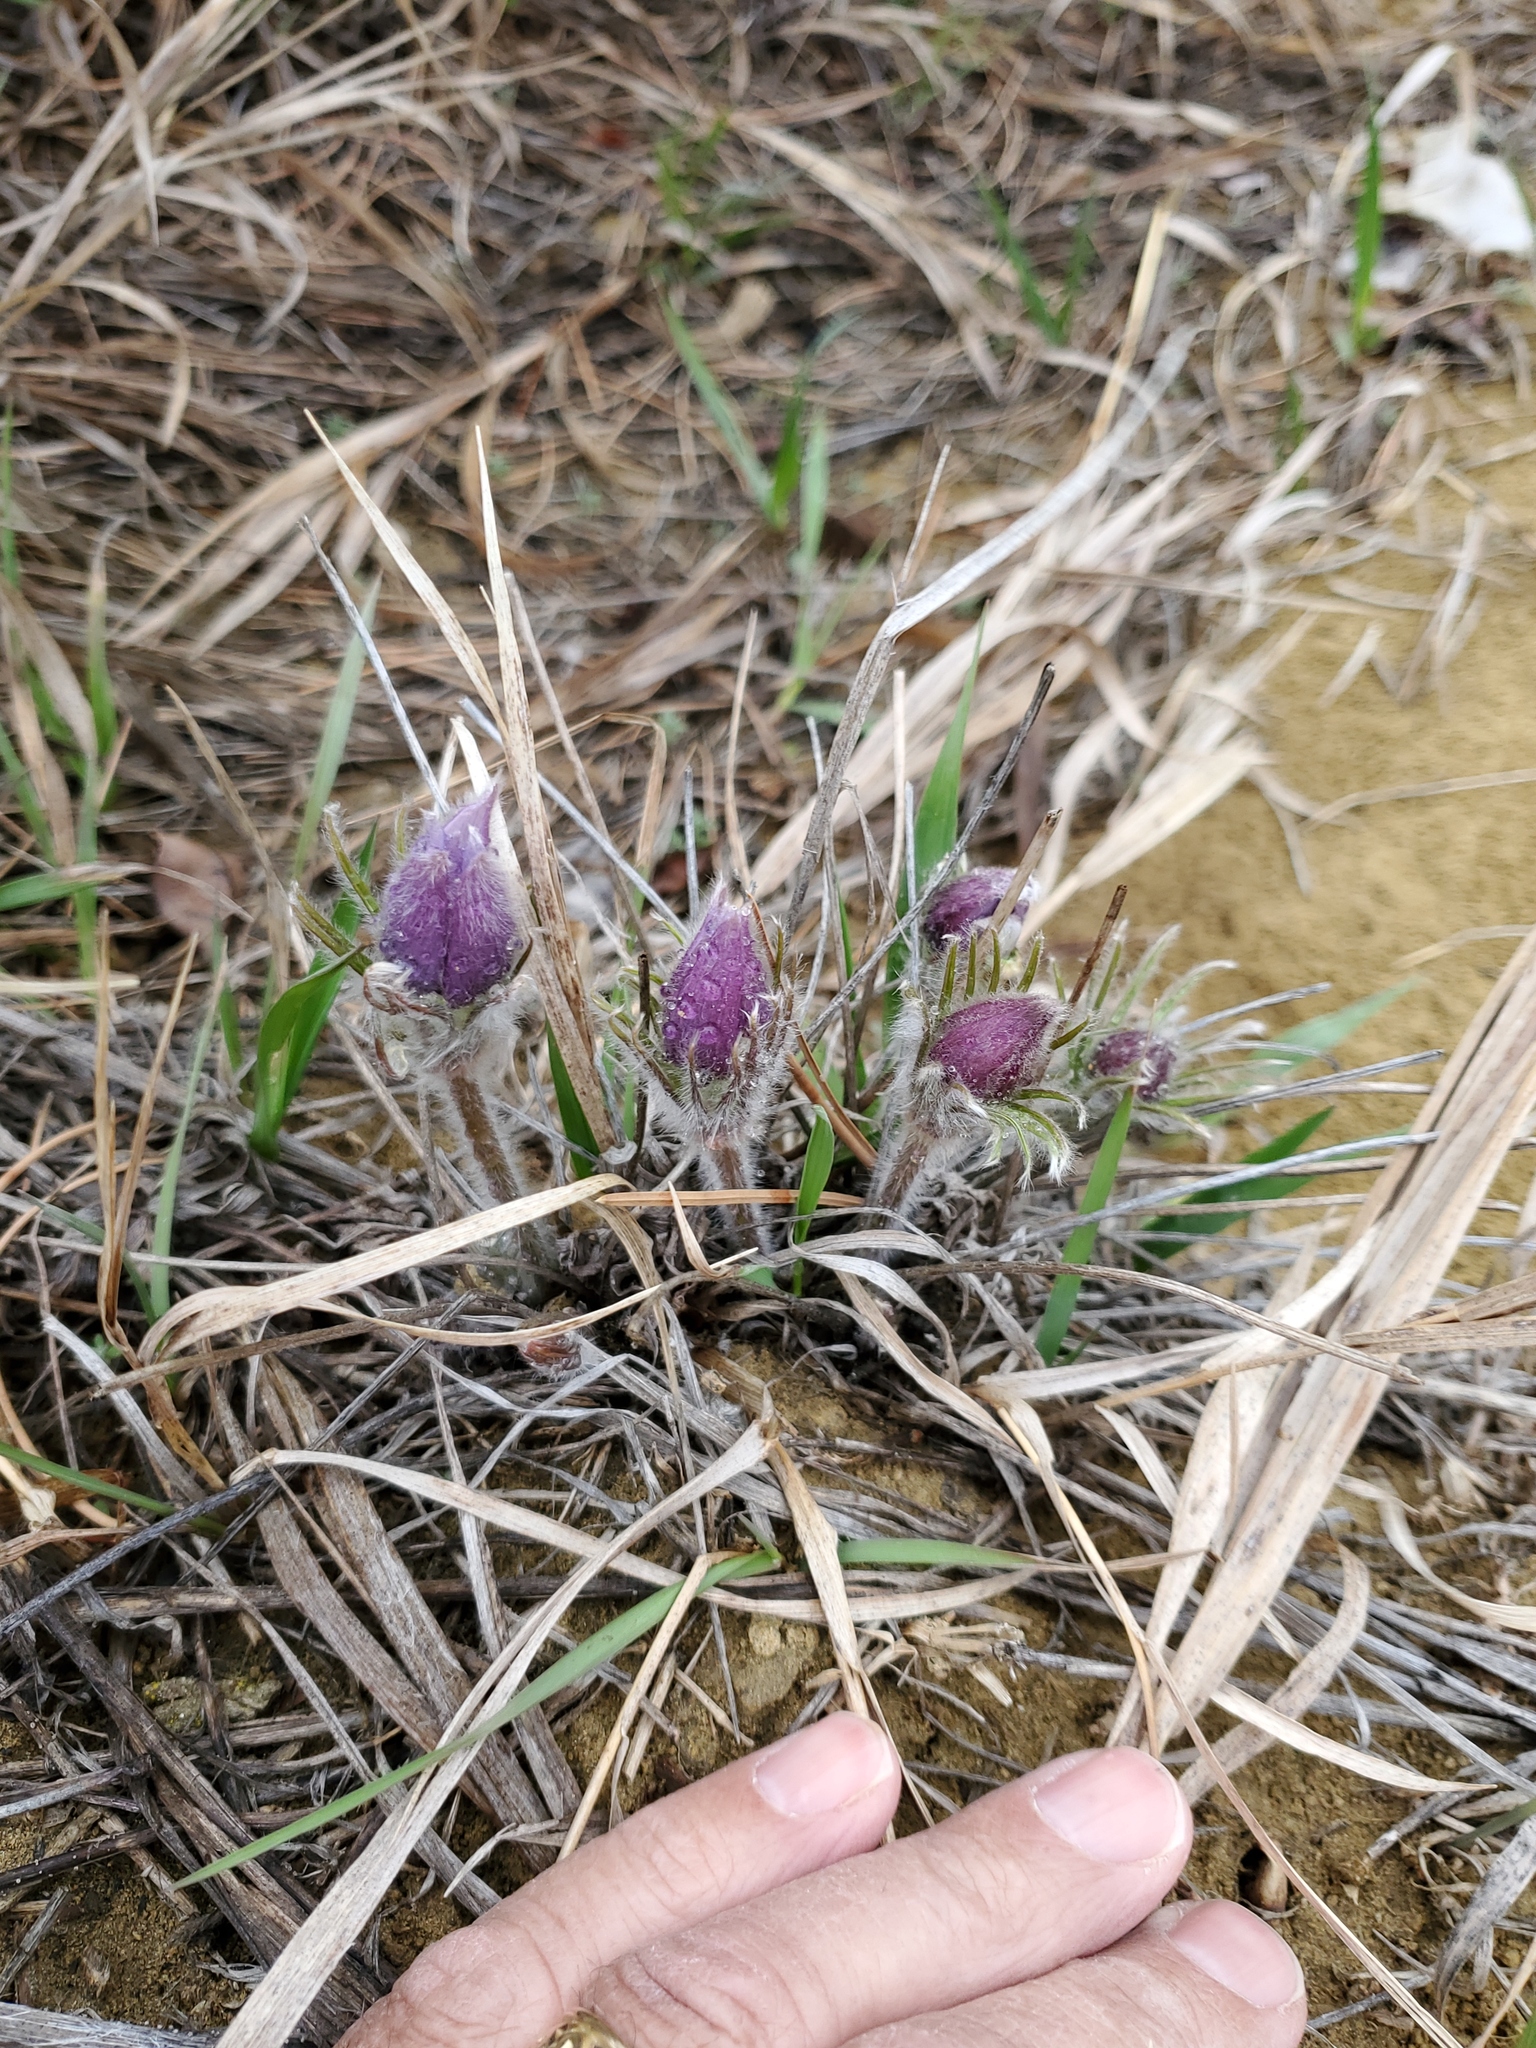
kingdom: Plantae
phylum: Tracheophyta
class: Magnoliopsida
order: Ranunculales
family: Ranunculaceae
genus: Pulsatilla
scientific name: Pulsatilla nuttalliana
